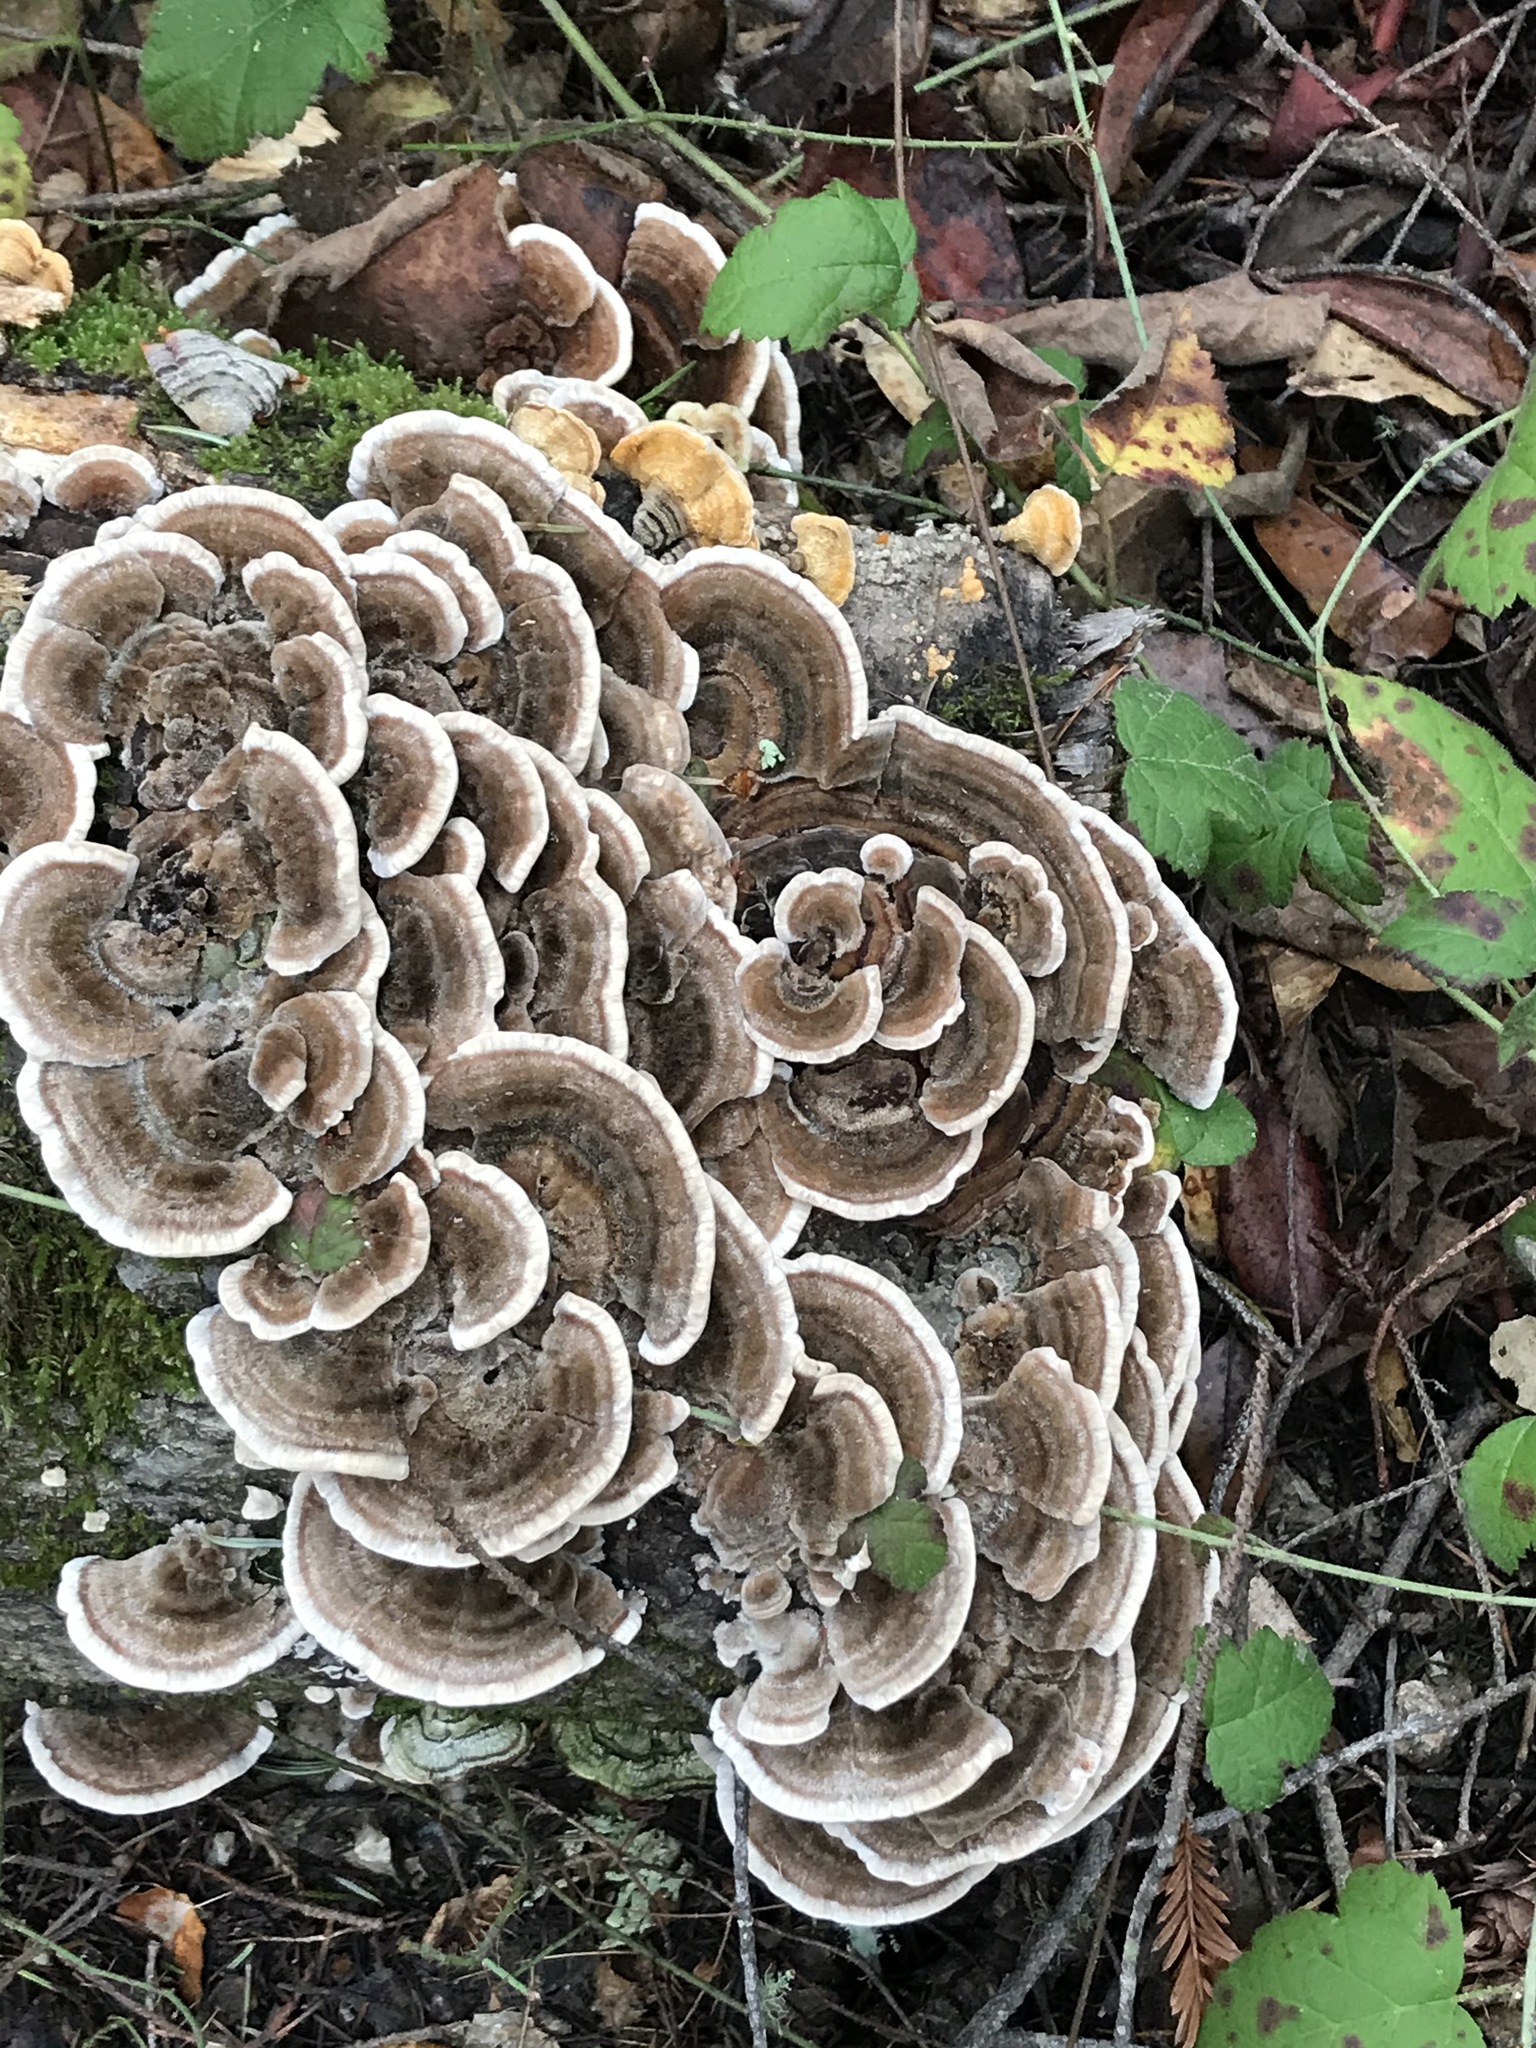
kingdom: Fungi
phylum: Basidiomycota
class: Agaricomycetes
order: Polyporales
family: Polyporaceae
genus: Trametes
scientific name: Trametes versicolor
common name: Turkeytail
